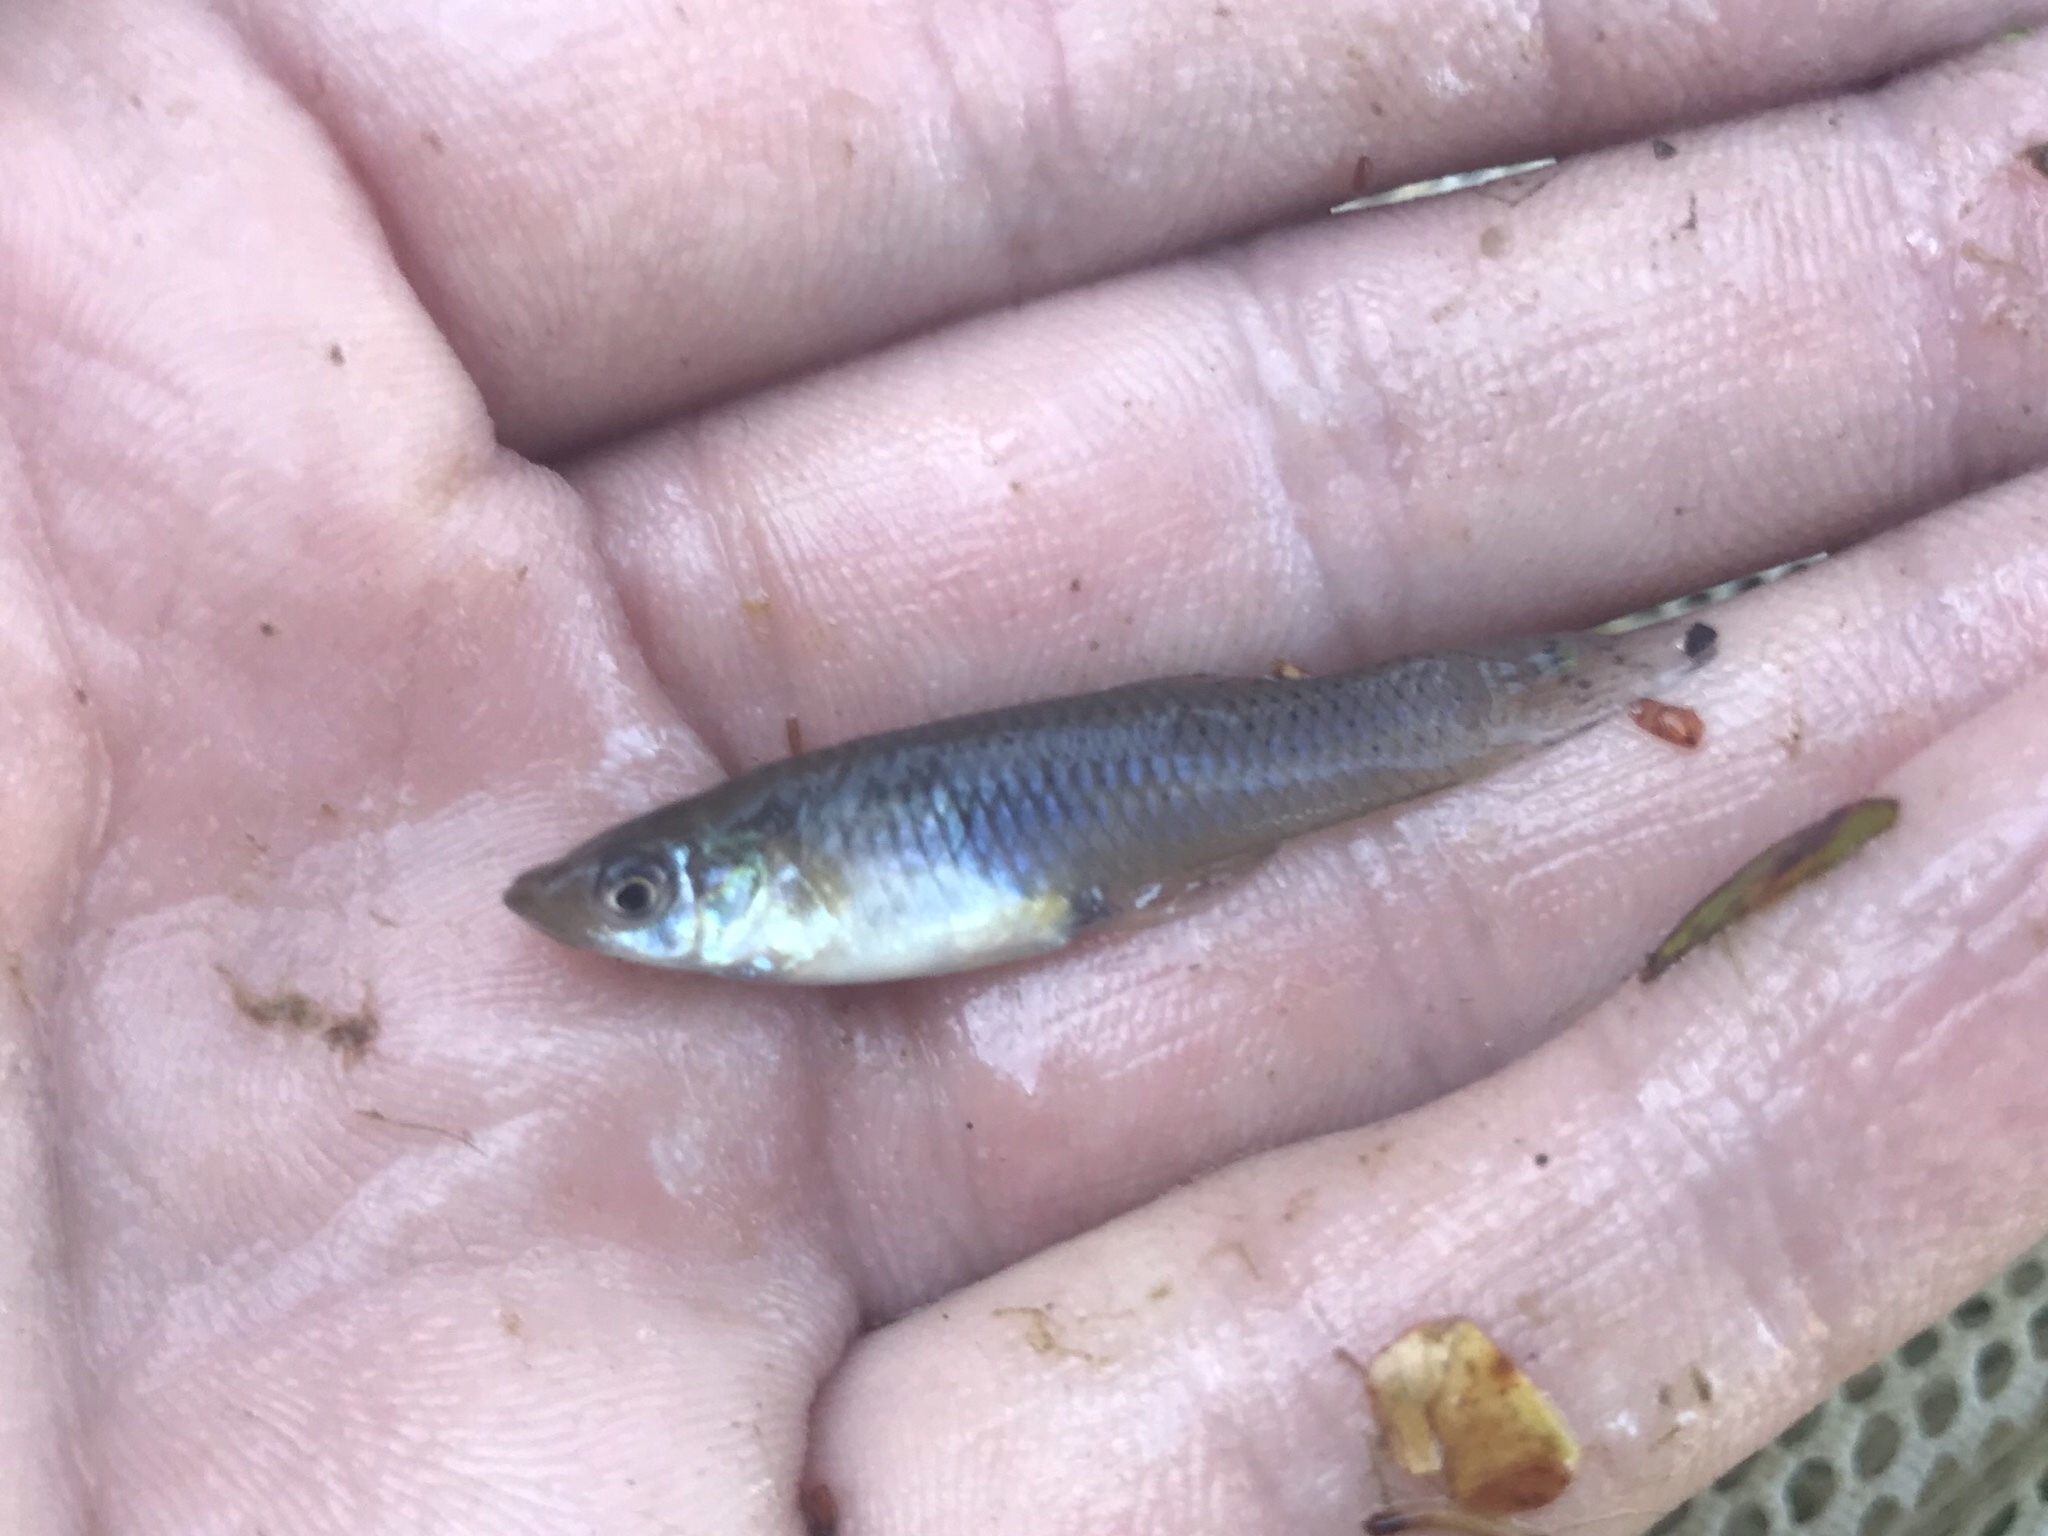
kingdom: Animalia
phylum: Chordata
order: Cyprinodontiformes
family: Poeciliidae
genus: Gambusia
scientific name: Gambusia affinis
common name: Mosquitofish
